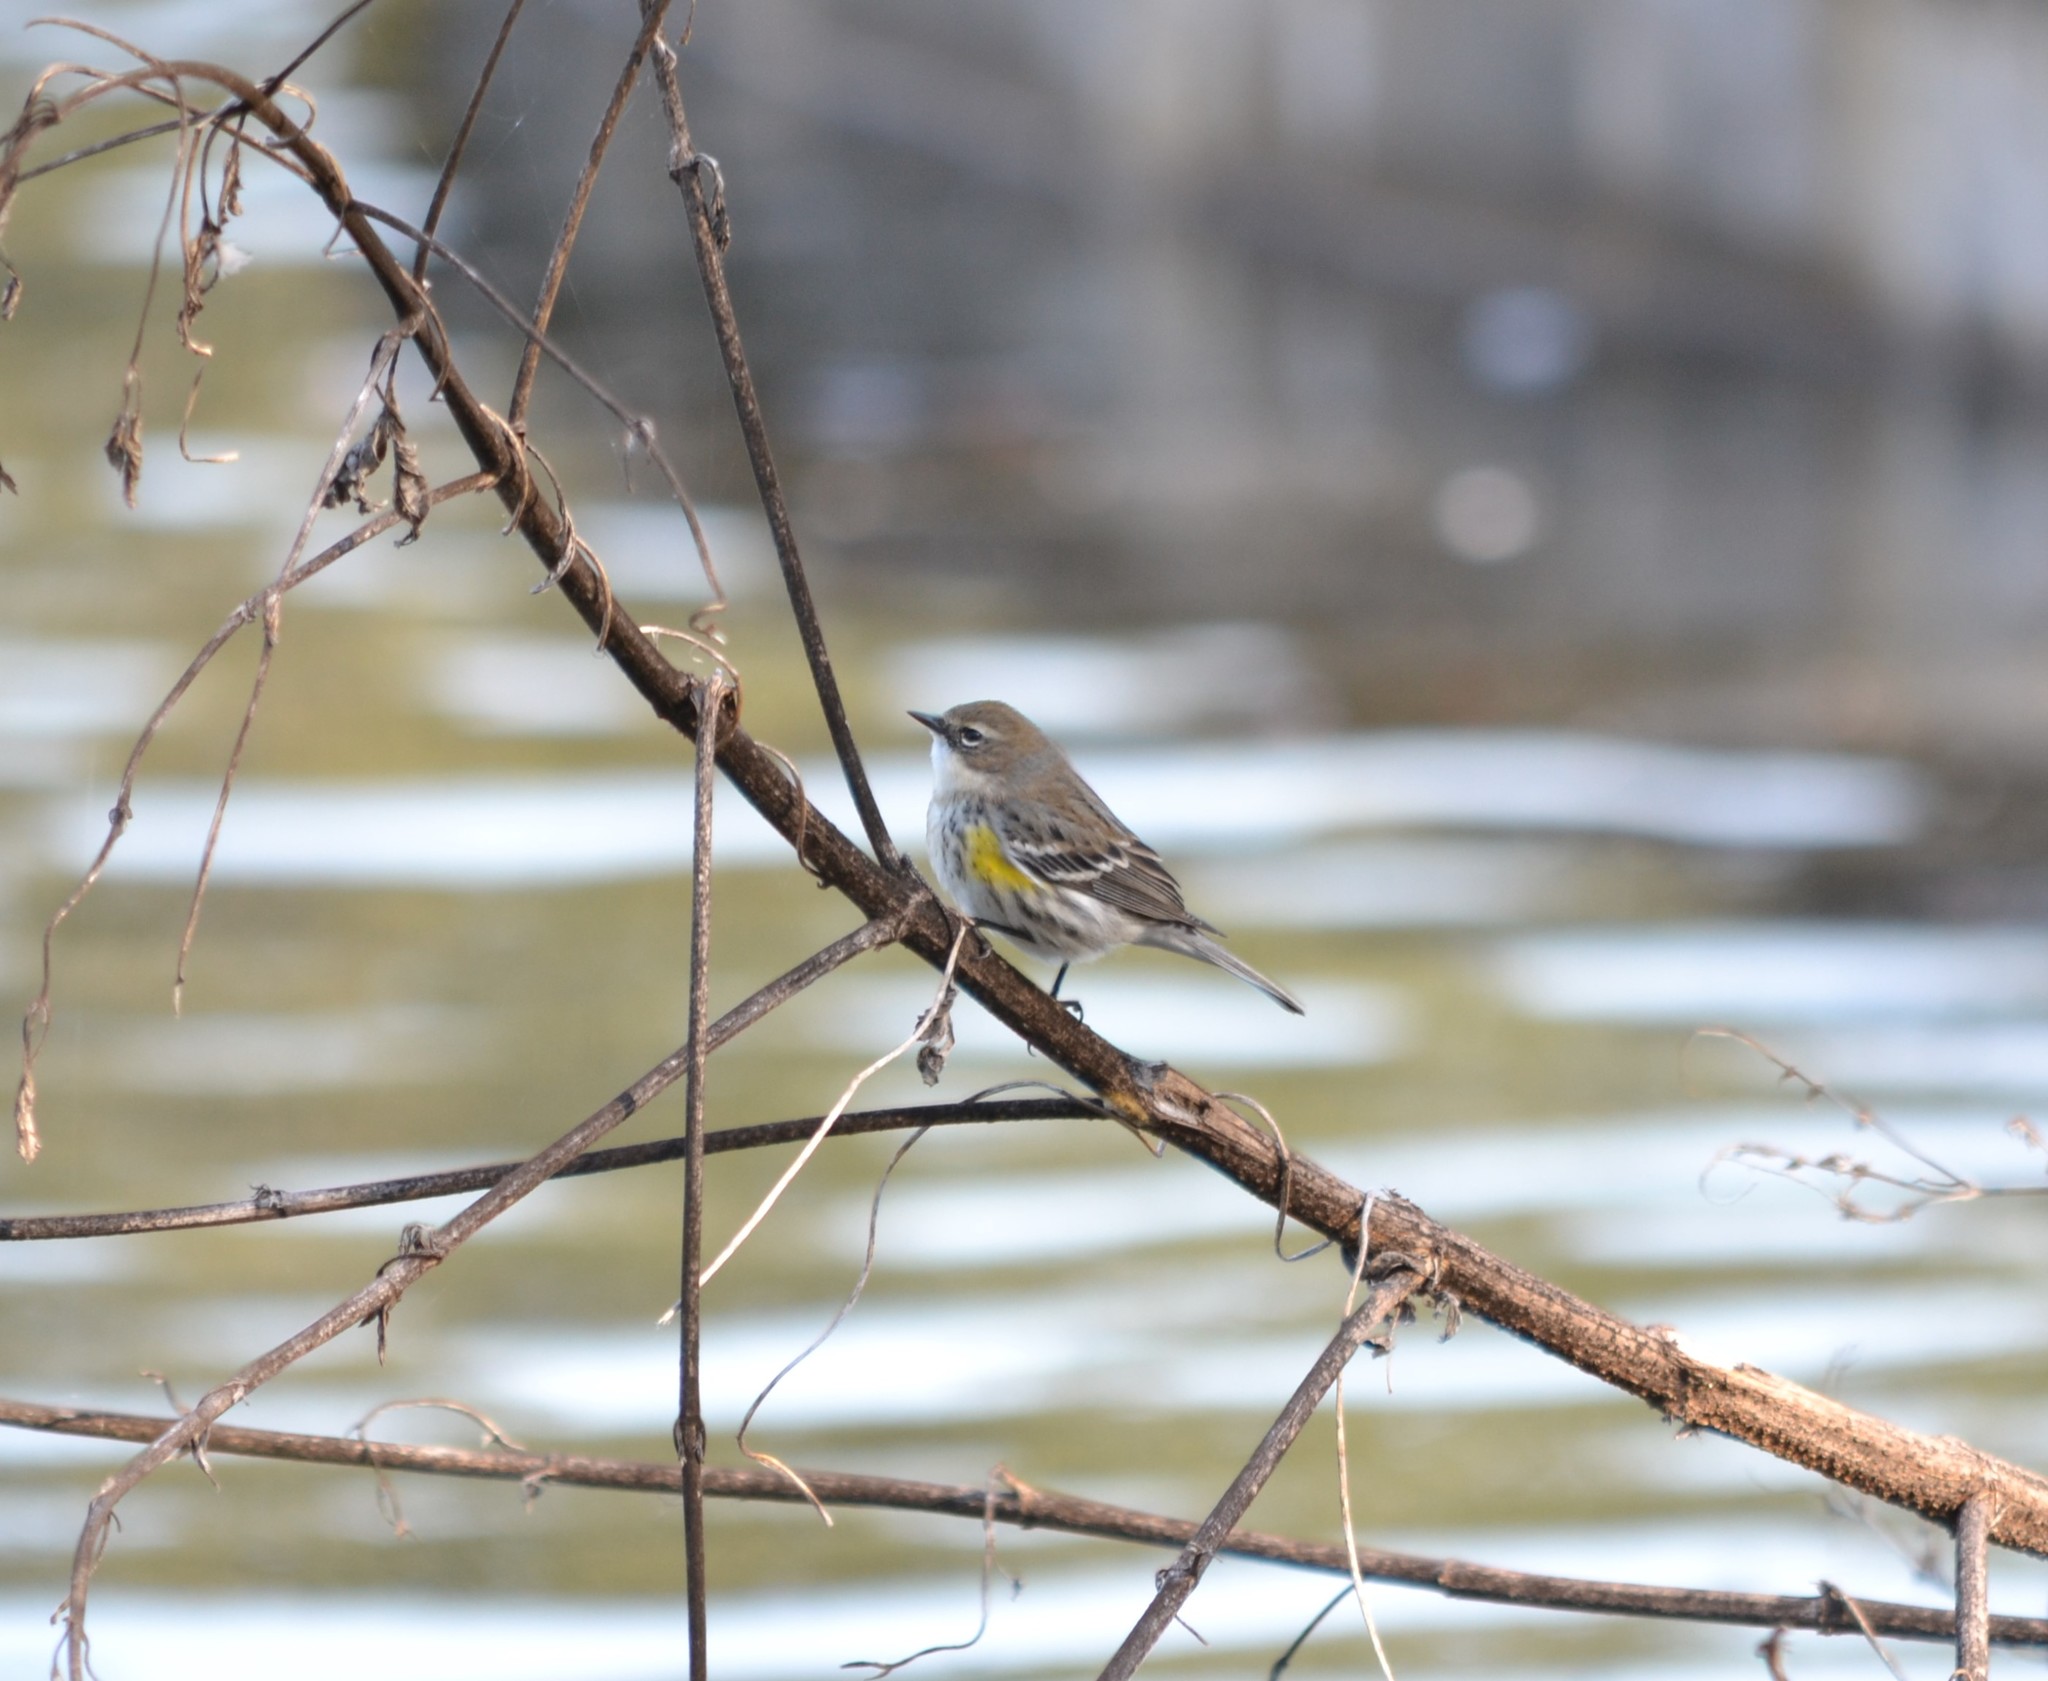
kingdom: Animalia
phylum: Chordata
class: Aves
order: Passeriformes
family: Parulidae
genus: Setophaga
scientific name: Setophaga coronata
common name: Myrtle warbler
